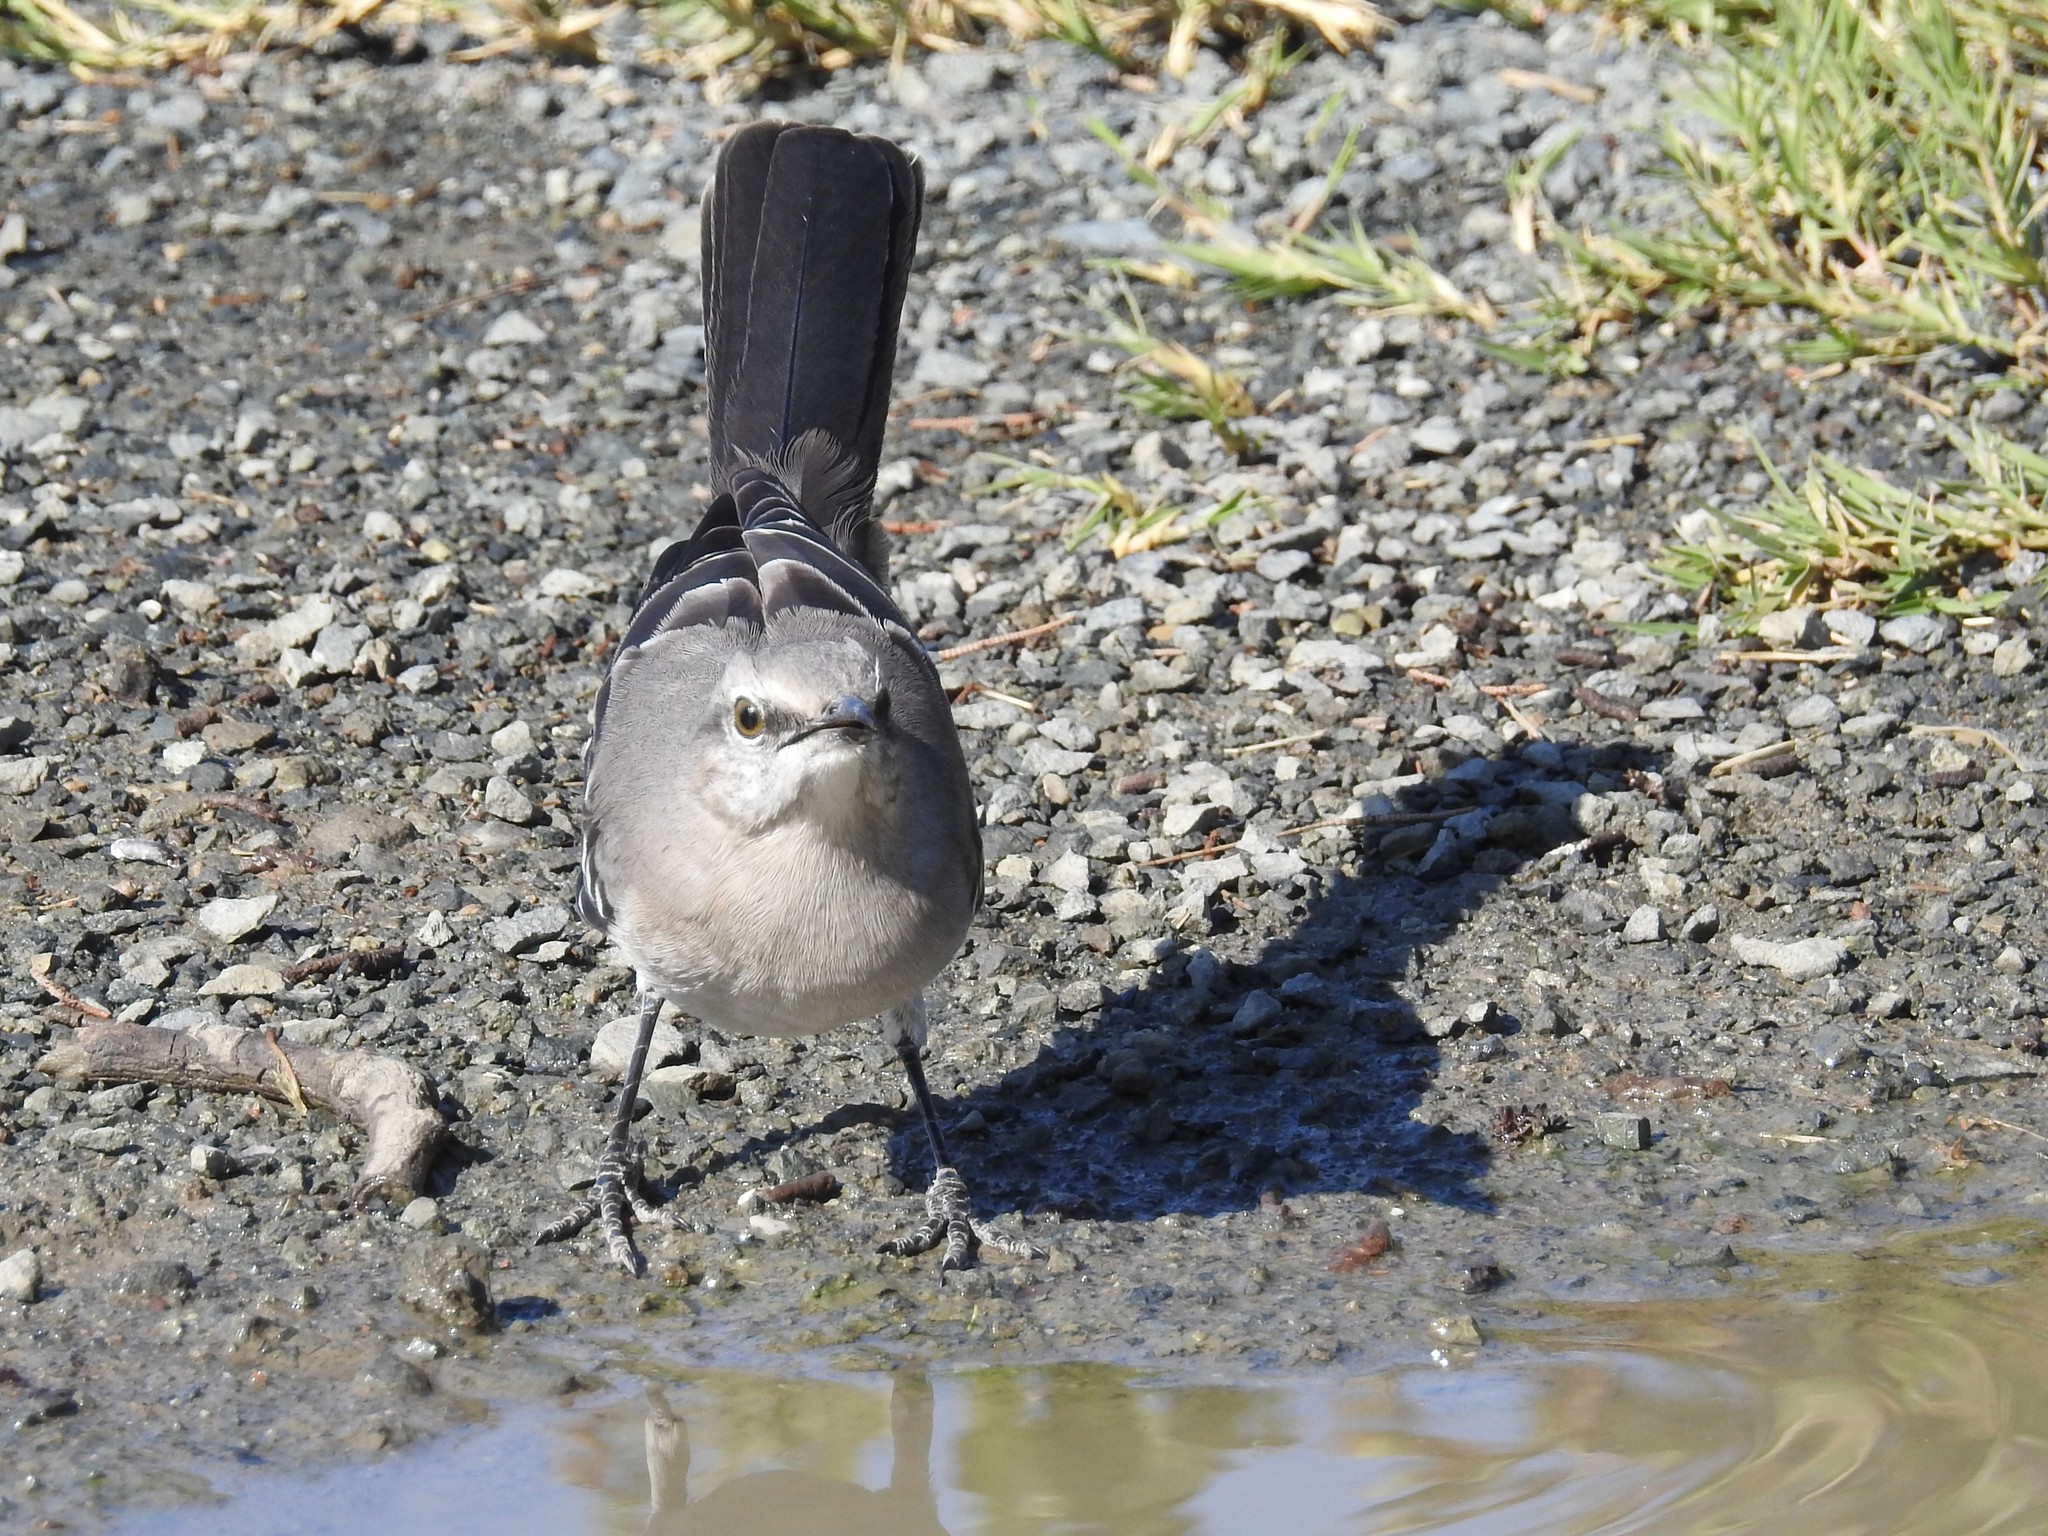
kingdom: Animalia
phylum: Chordata
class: Aves
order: Passeriformes
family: Mimidae
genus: Mimus
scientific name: Mimus polyglottos
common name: Northern mockingbird
